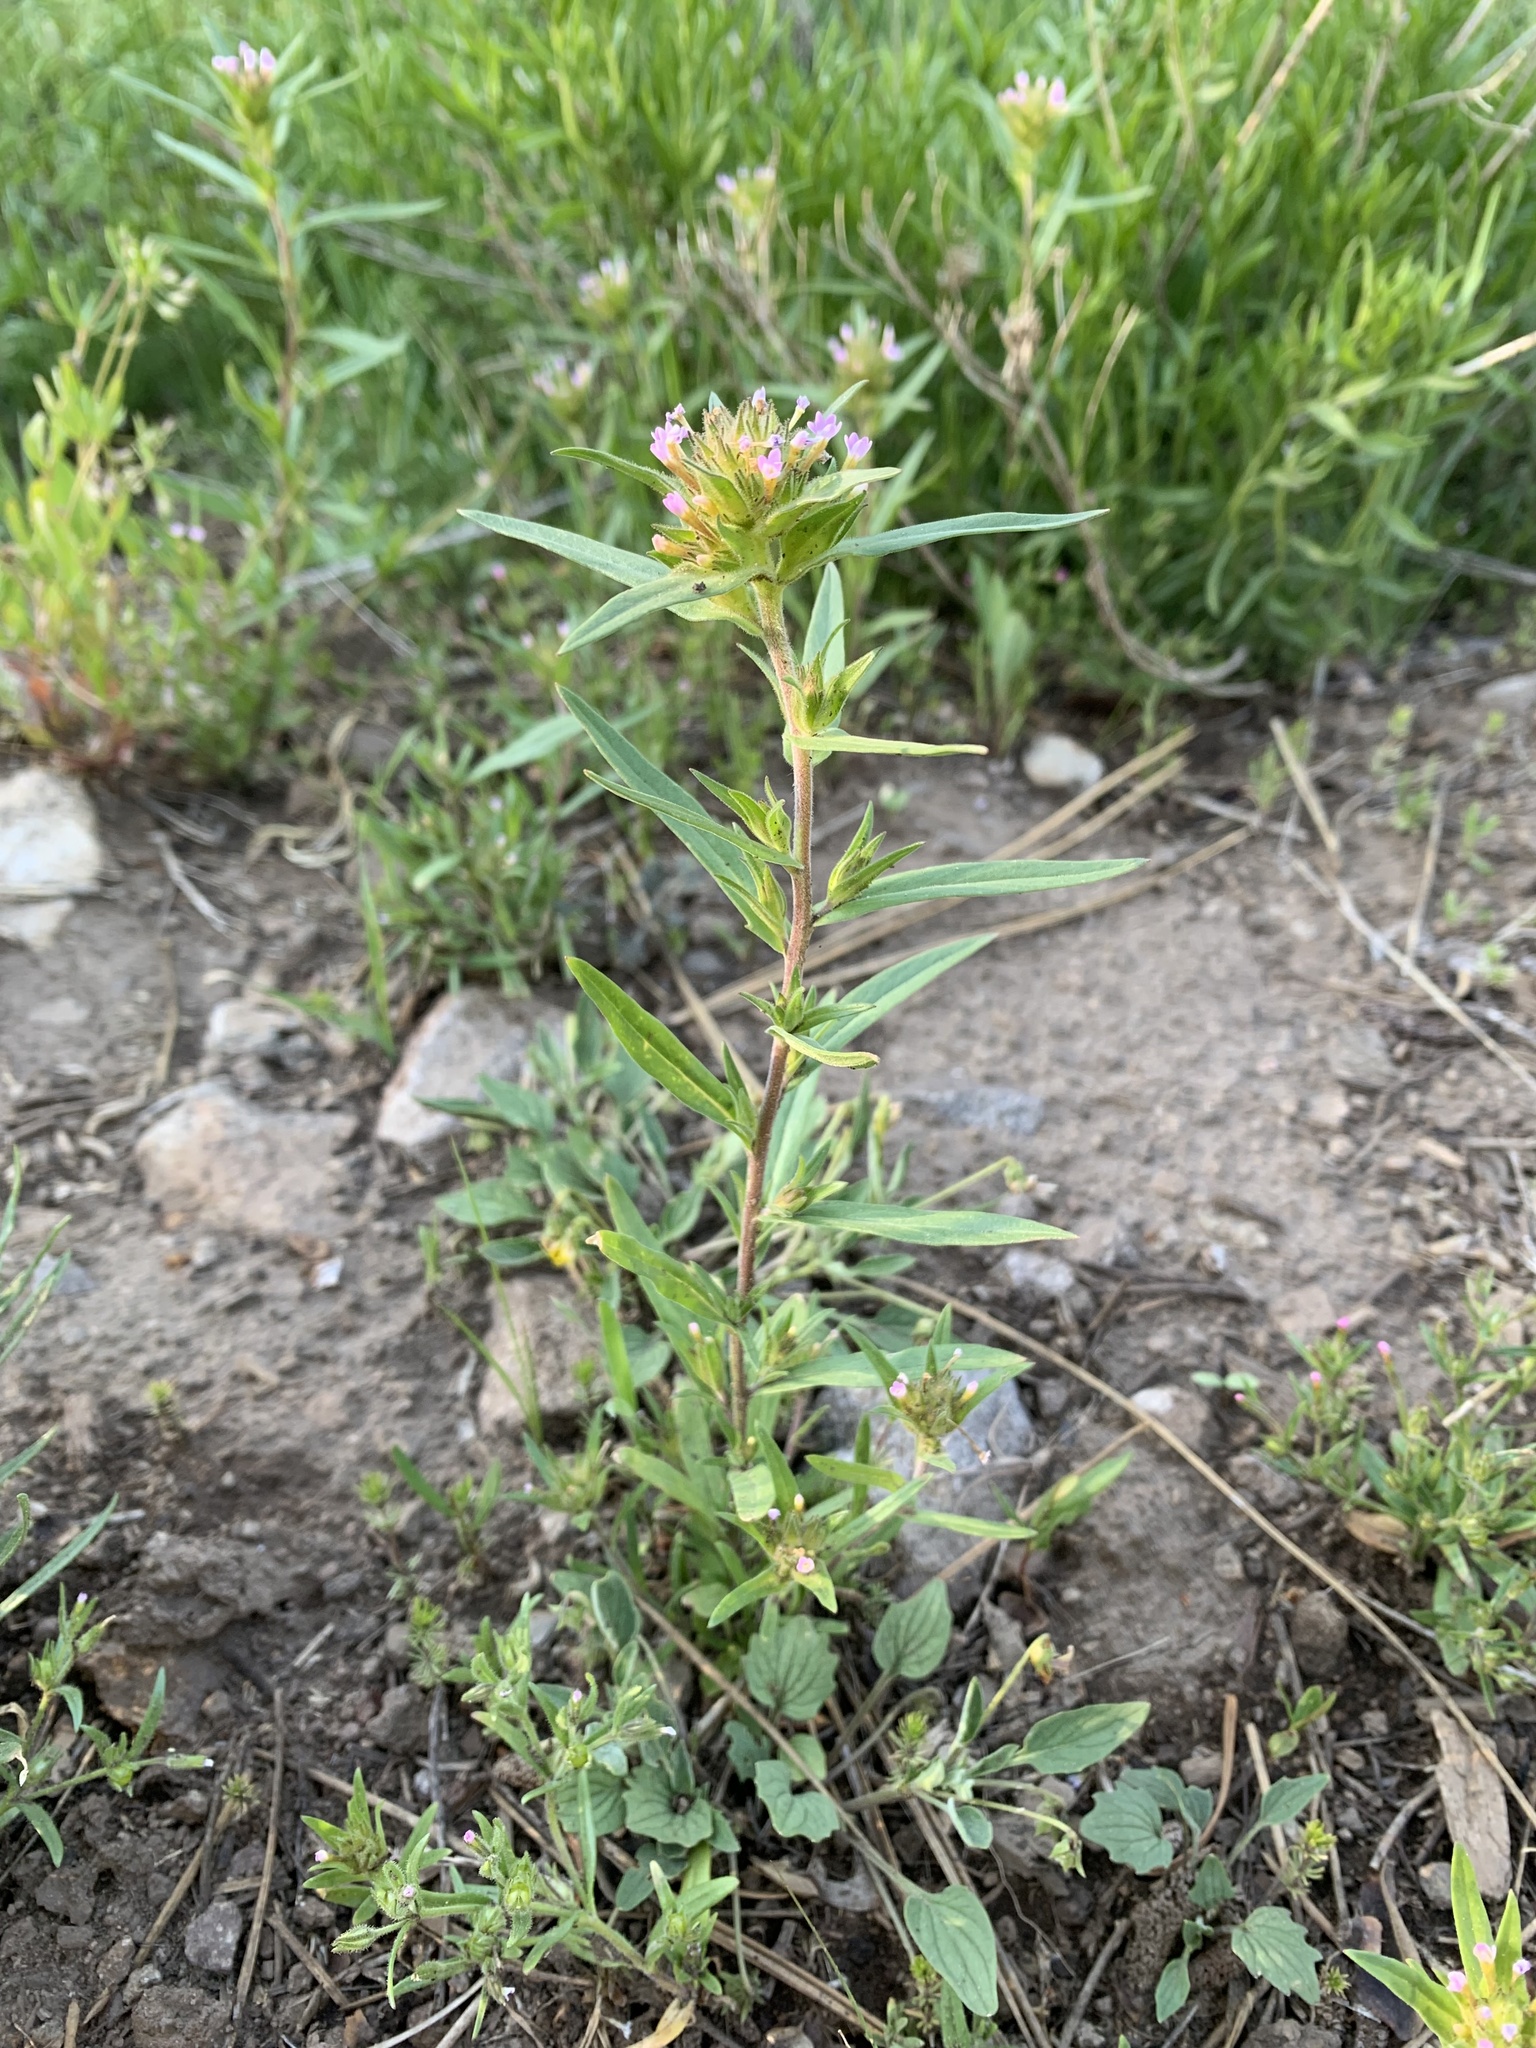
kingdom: Plantae
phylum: Tracheophyta
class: Magnoliopsida
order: Ericales
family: Polemoniaceae
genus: Collomia
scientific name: Collomia linearis
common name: Tiny trumpet
